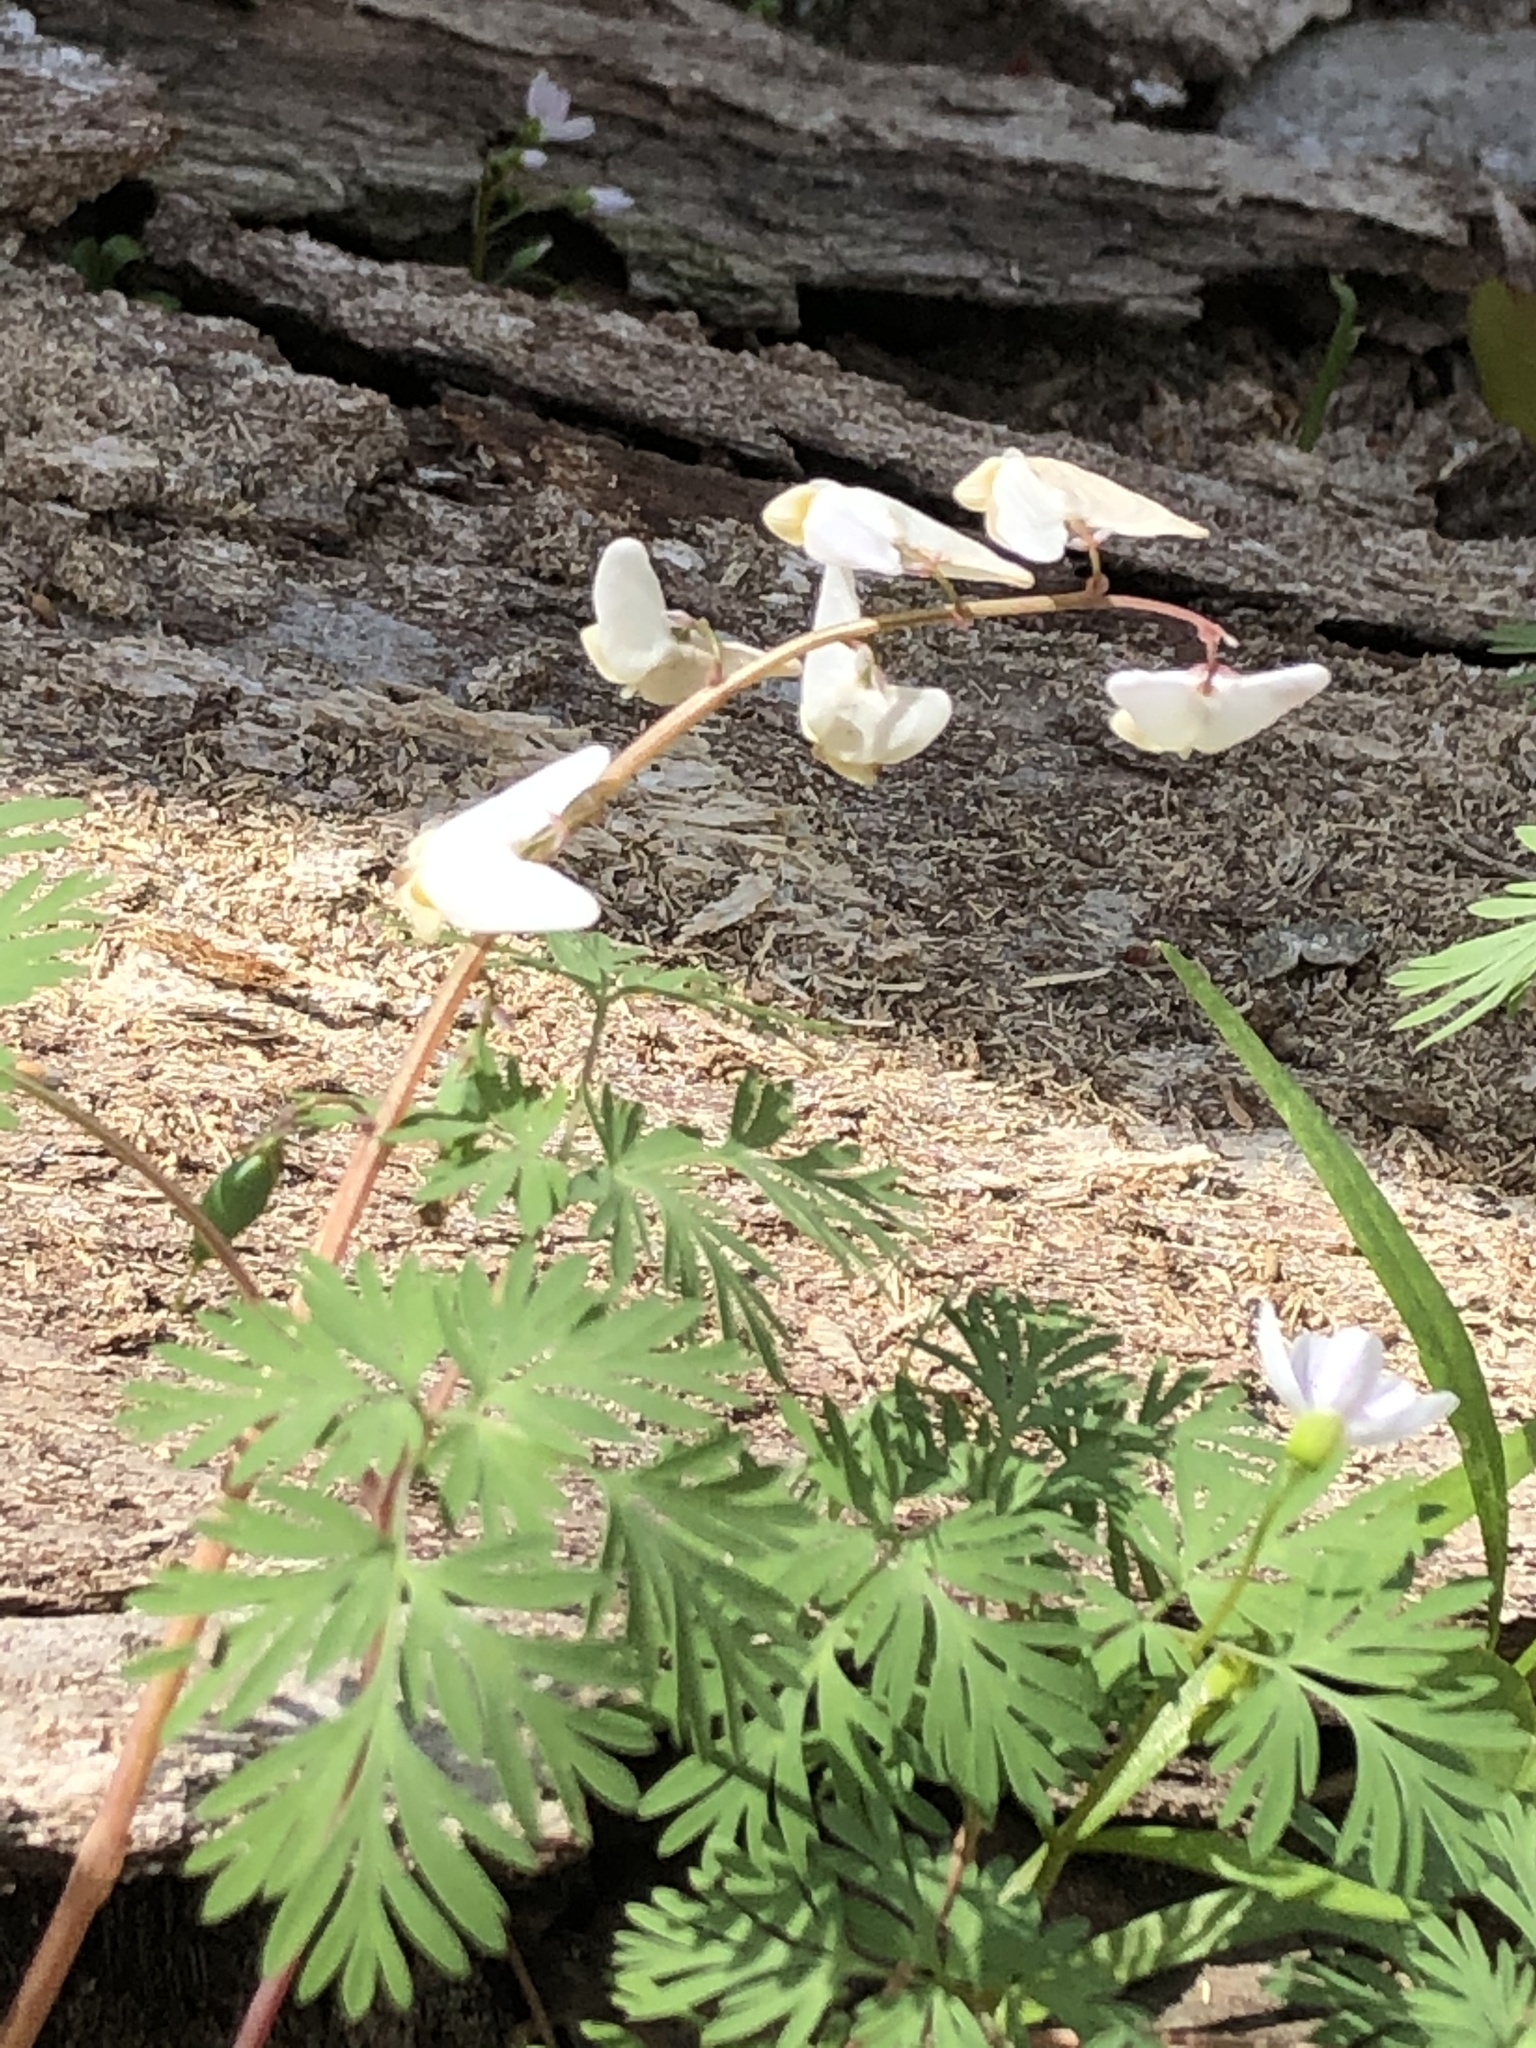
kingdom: Plantae
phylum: Tracheophyta
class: Magnoliopsida
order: Ranunculales
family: Papaveraceae
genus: Dicentra
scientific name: Dicentra cucullaria
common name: Dutchman's breeches
